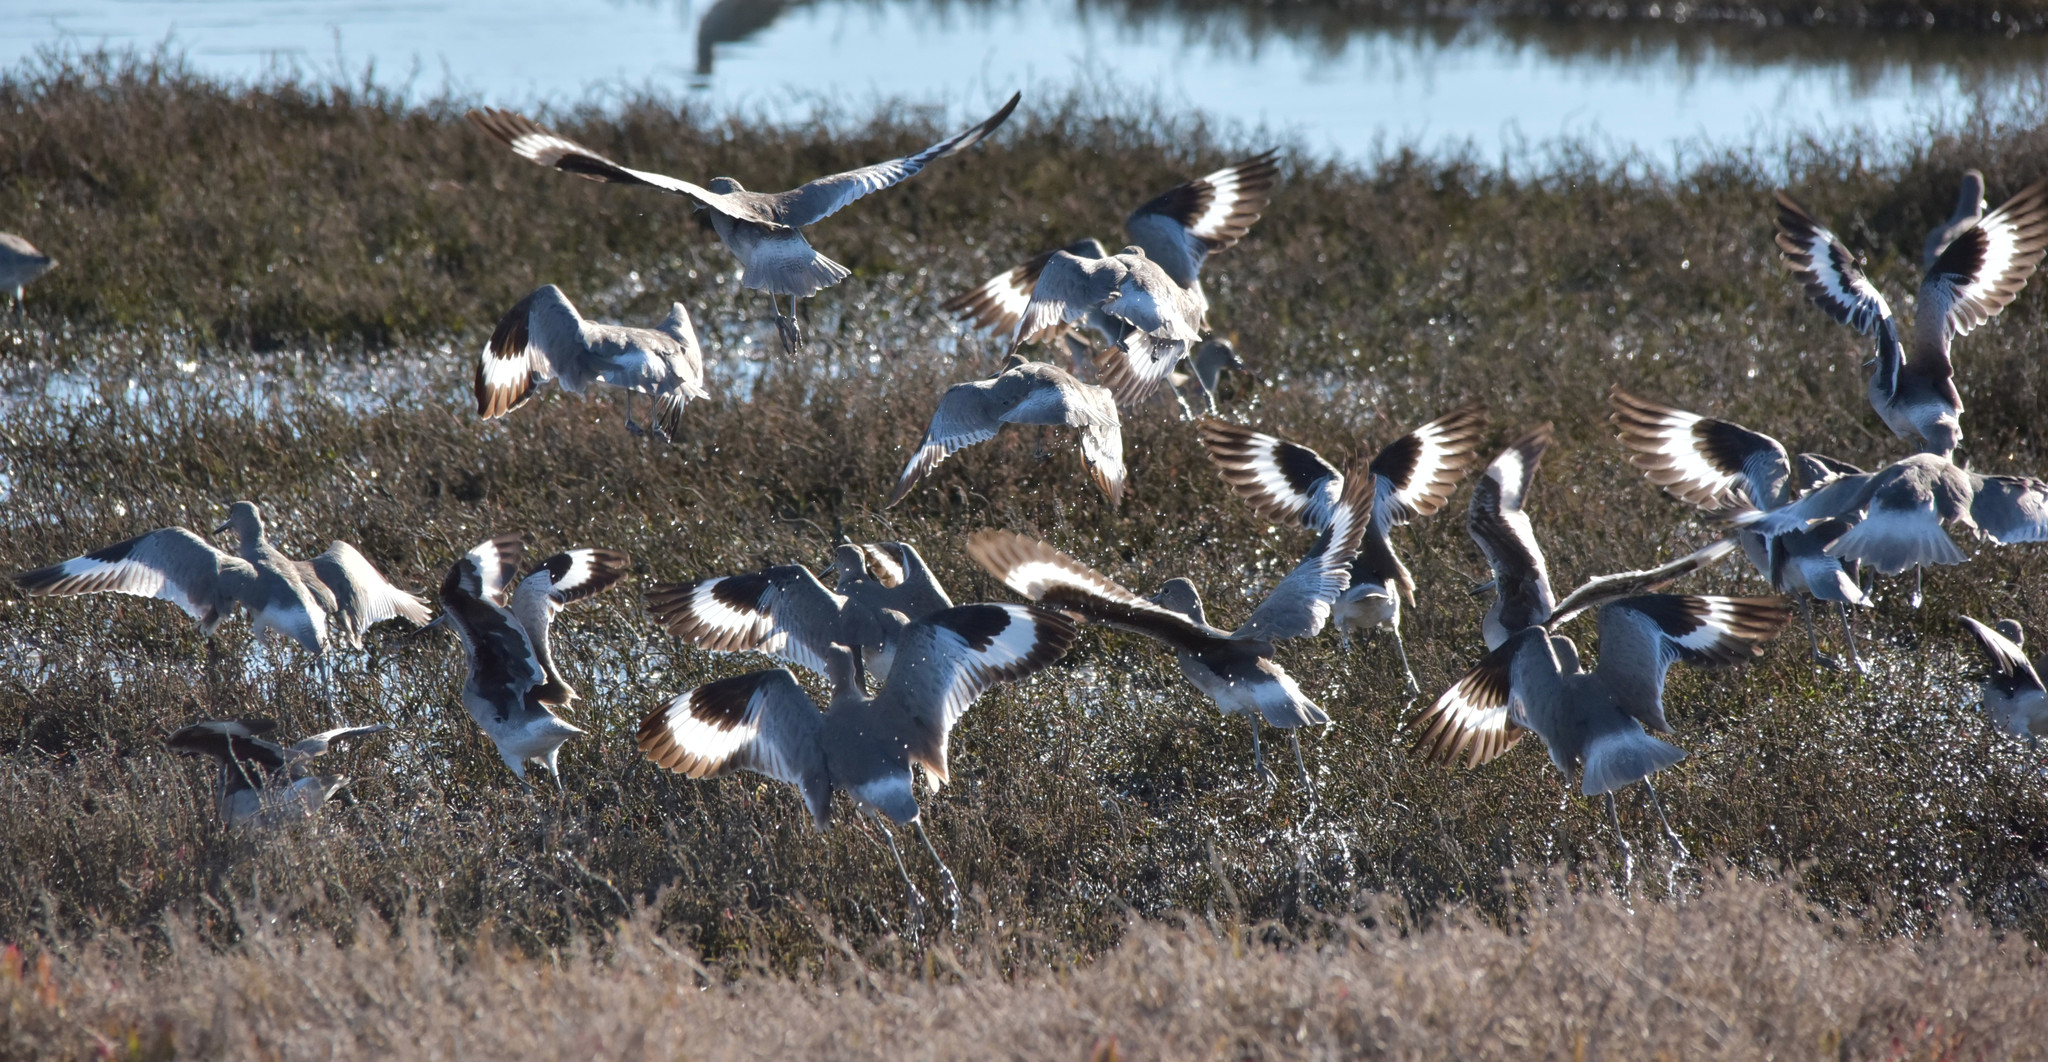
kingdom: Animalia
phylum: Chordata
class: Aves
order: Charadriiformes
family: Scolopacidae
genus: Tringa
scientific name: Tringa semipalmata
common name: Willet
